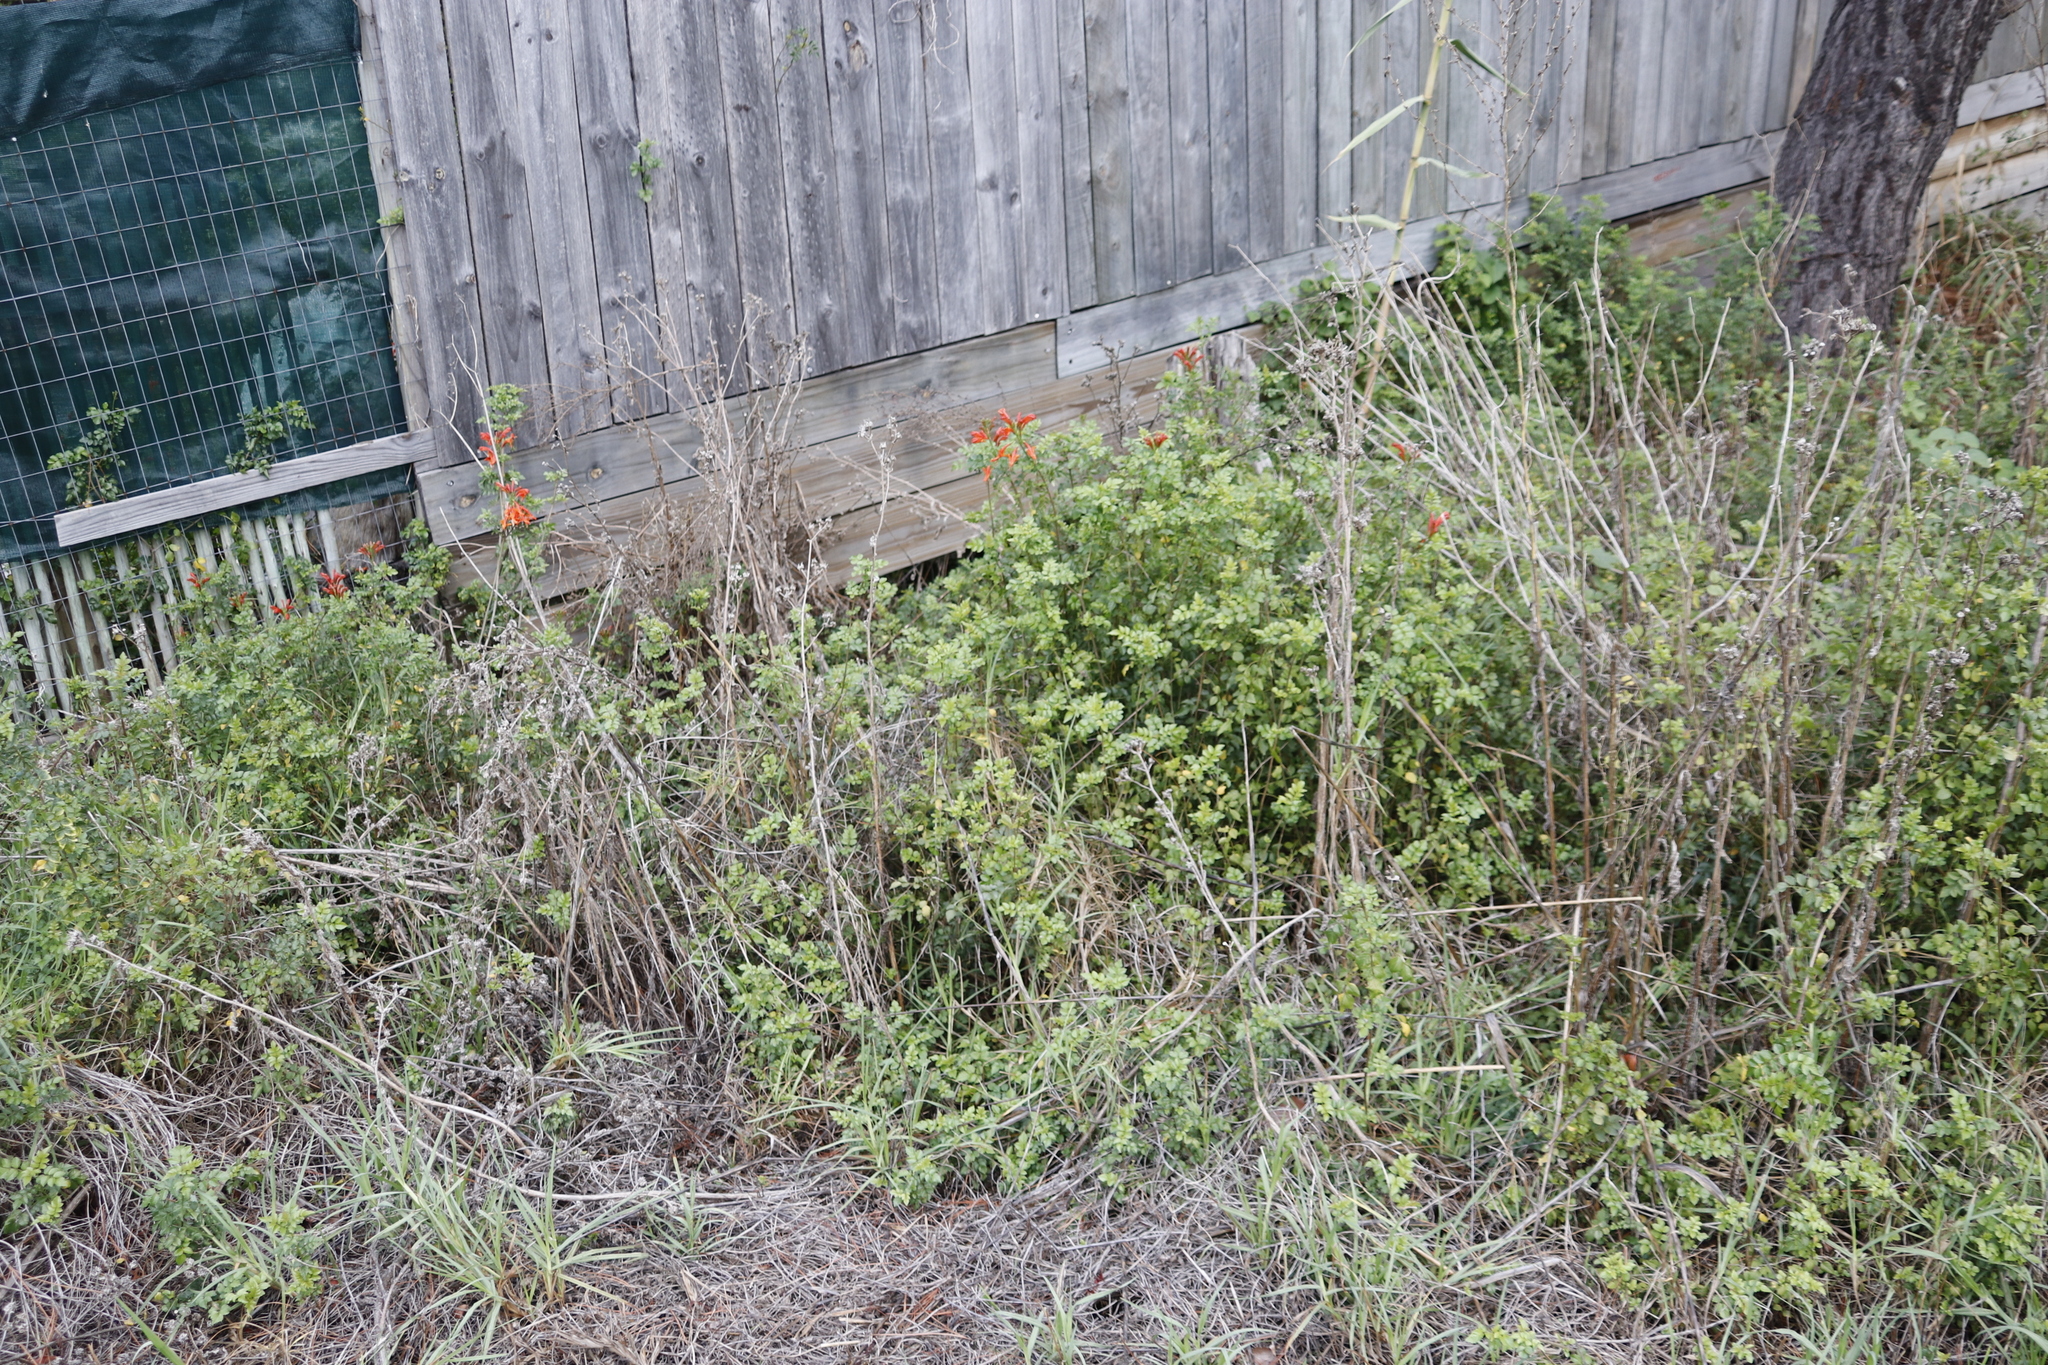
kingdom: Plantae
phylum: Tracheophyta
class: Magnoliopsida
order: Lamiales
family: Bignoniaceae
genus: Tecomaria
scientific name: Tecomaria capensis
